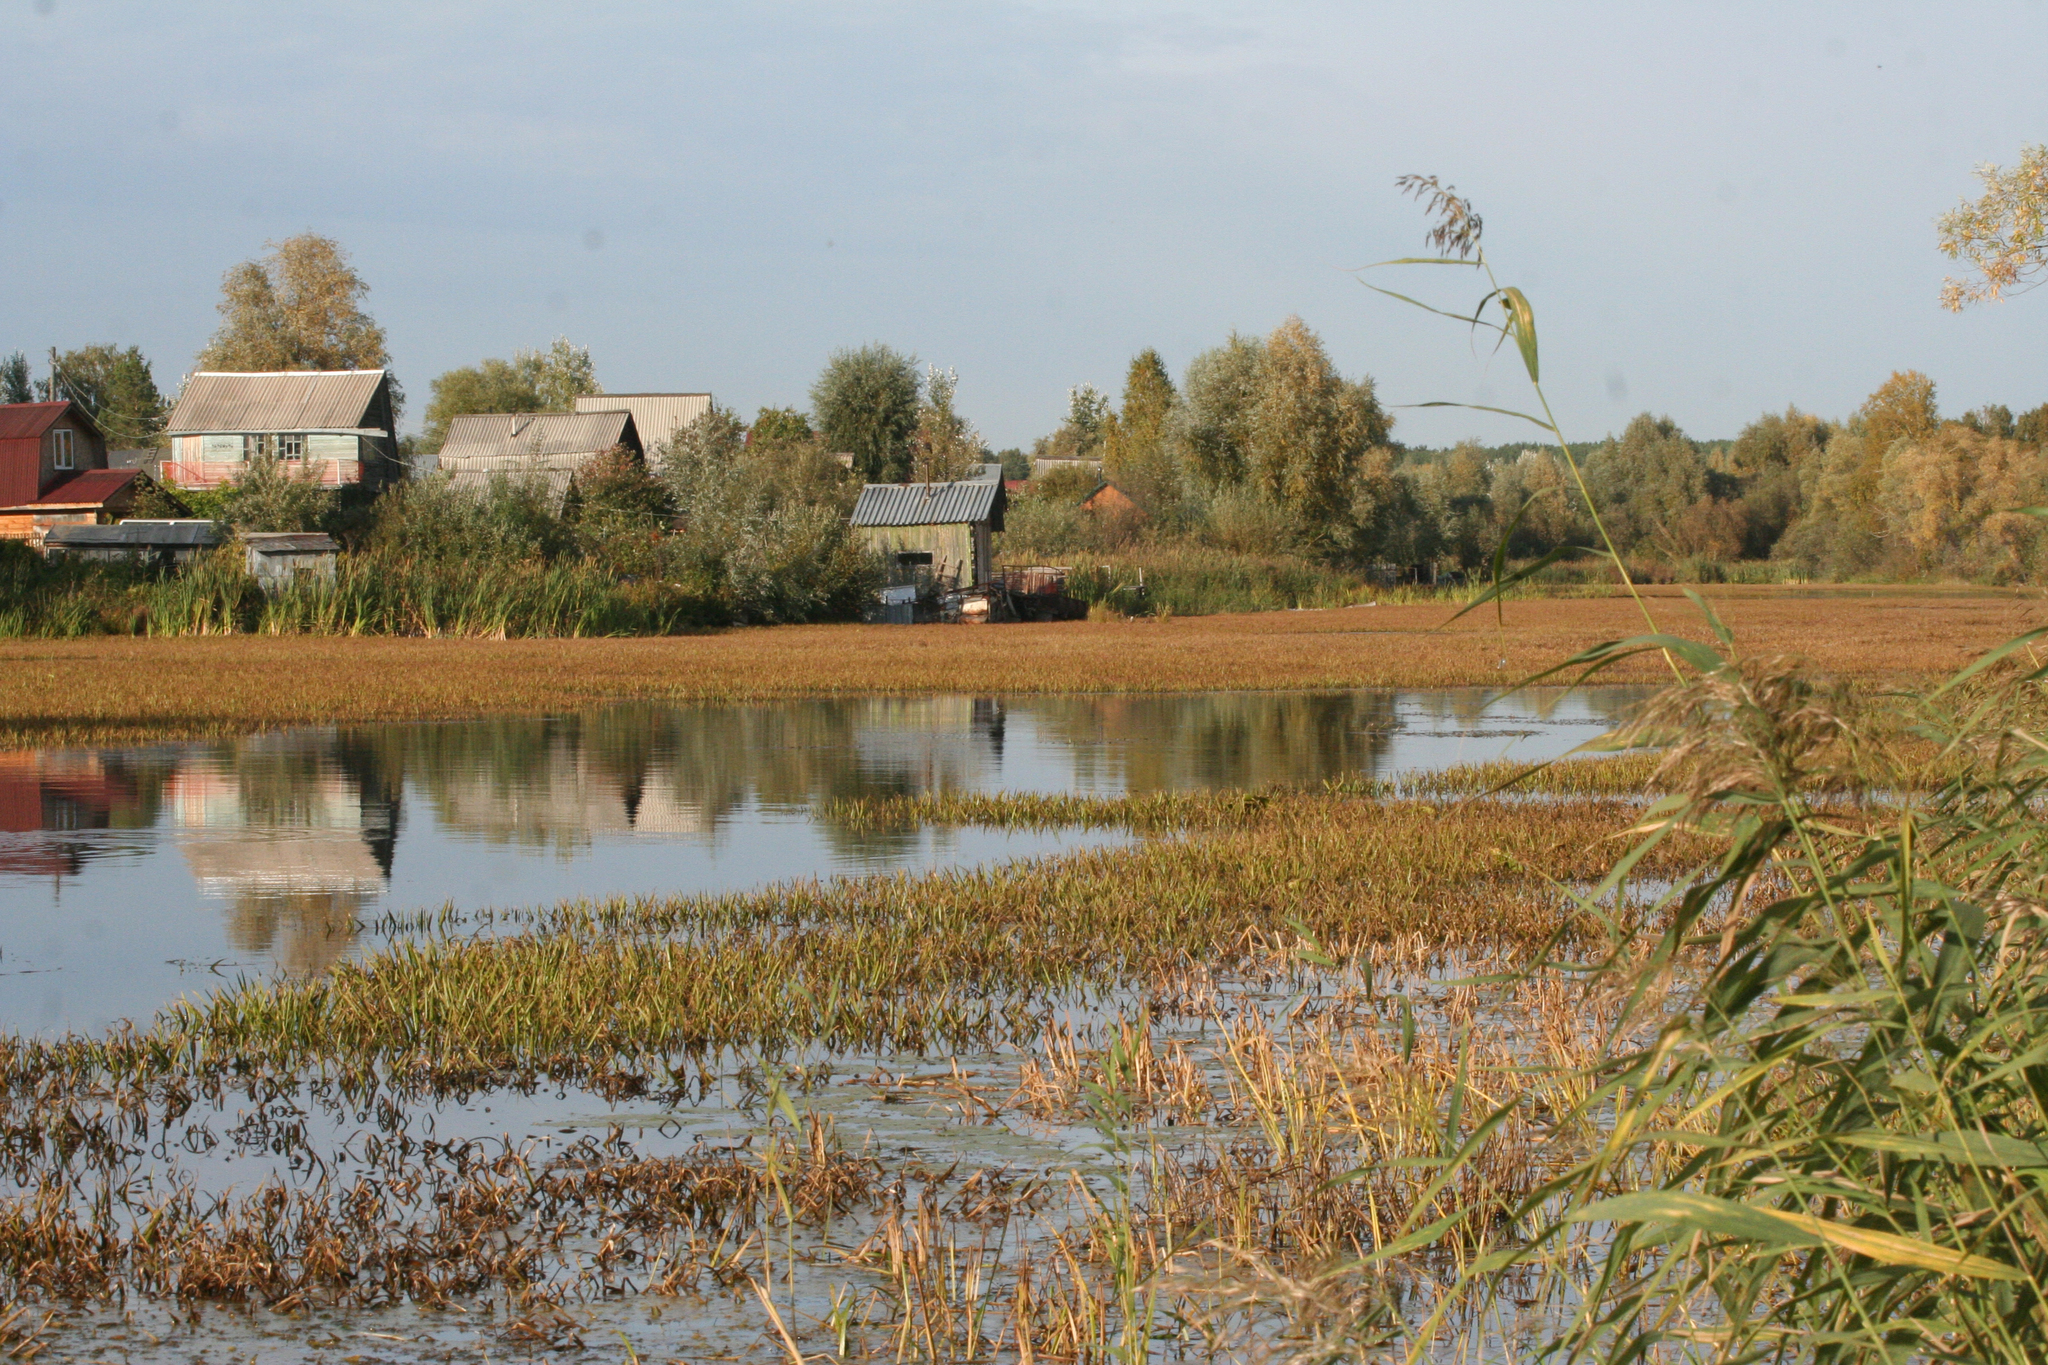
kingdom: Plantae
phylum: Tracheophyta
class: Liliopsida
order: Alismatales
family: Hydrocharitaceae
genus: Stratiotes
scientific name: Stratiotes aloides
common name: Water-soldier
